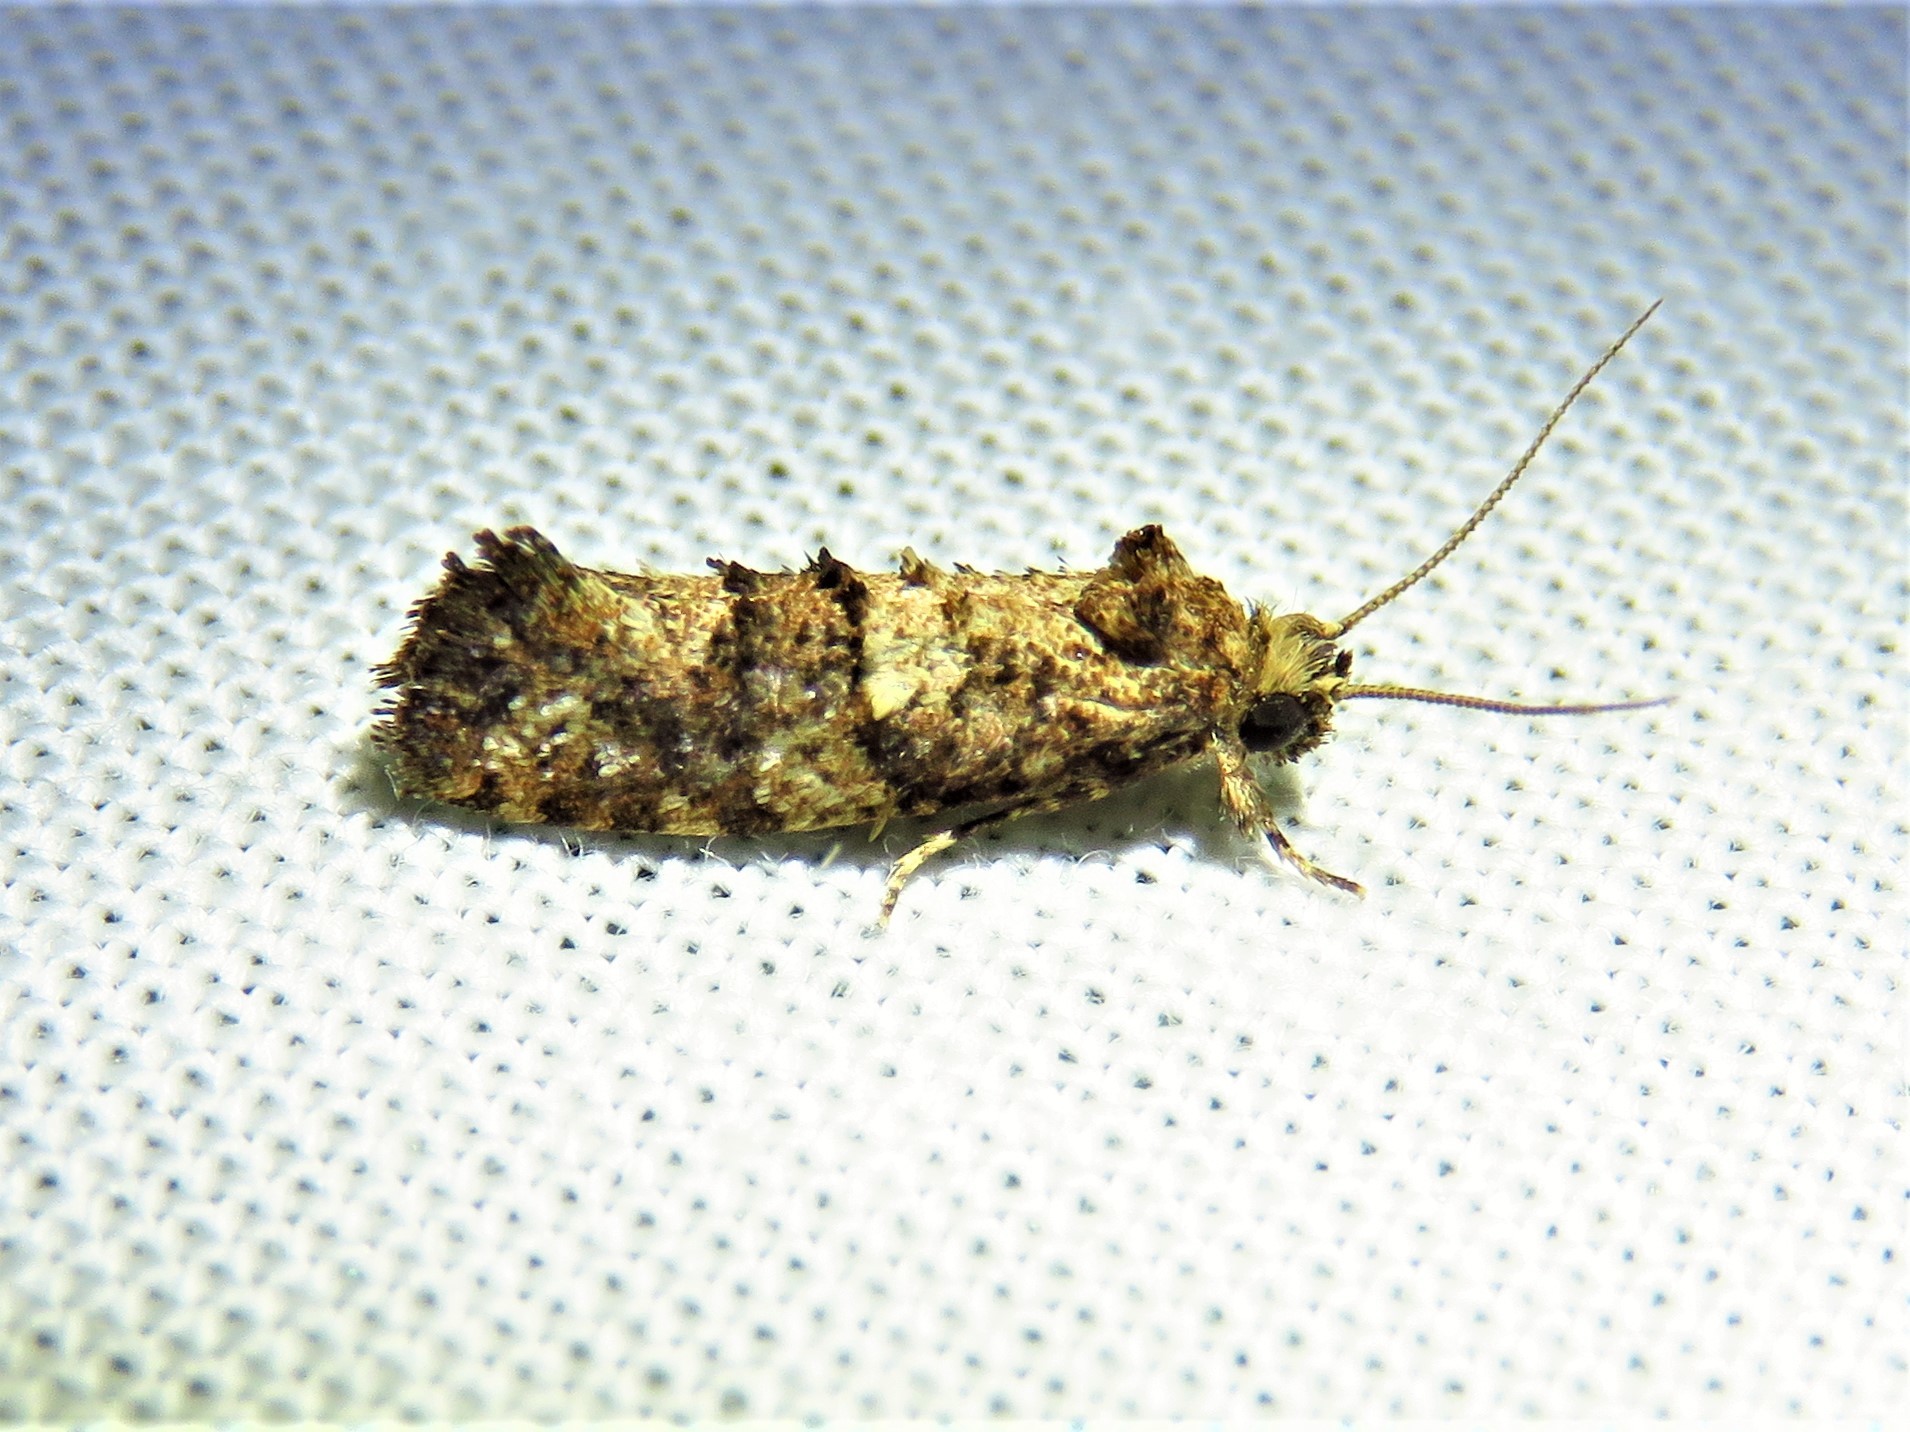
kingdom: Animalia
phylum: Arthropoda
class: Insecta
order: Lepidoptera
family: Tineidae
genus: Acrolophus
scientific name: Acrolophus cressoni
